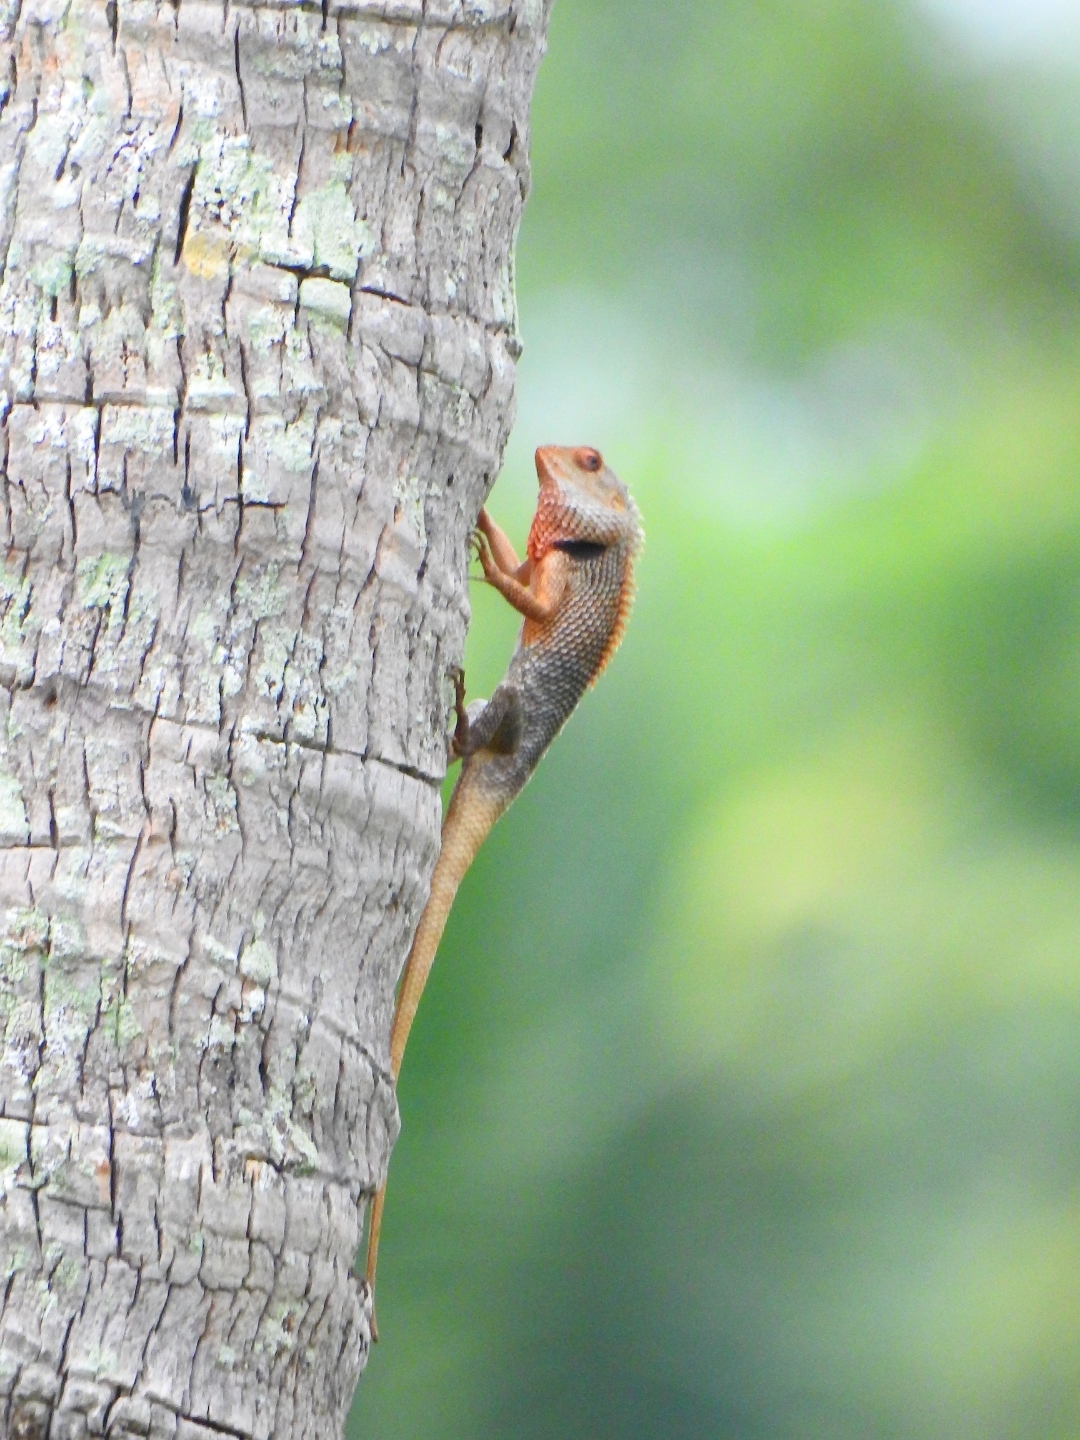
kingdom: Animalia
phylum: Chordata
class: Squamata
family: Agamidae
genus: Calotes
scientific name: Calotes versicolor
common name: Oriental garden lizard
